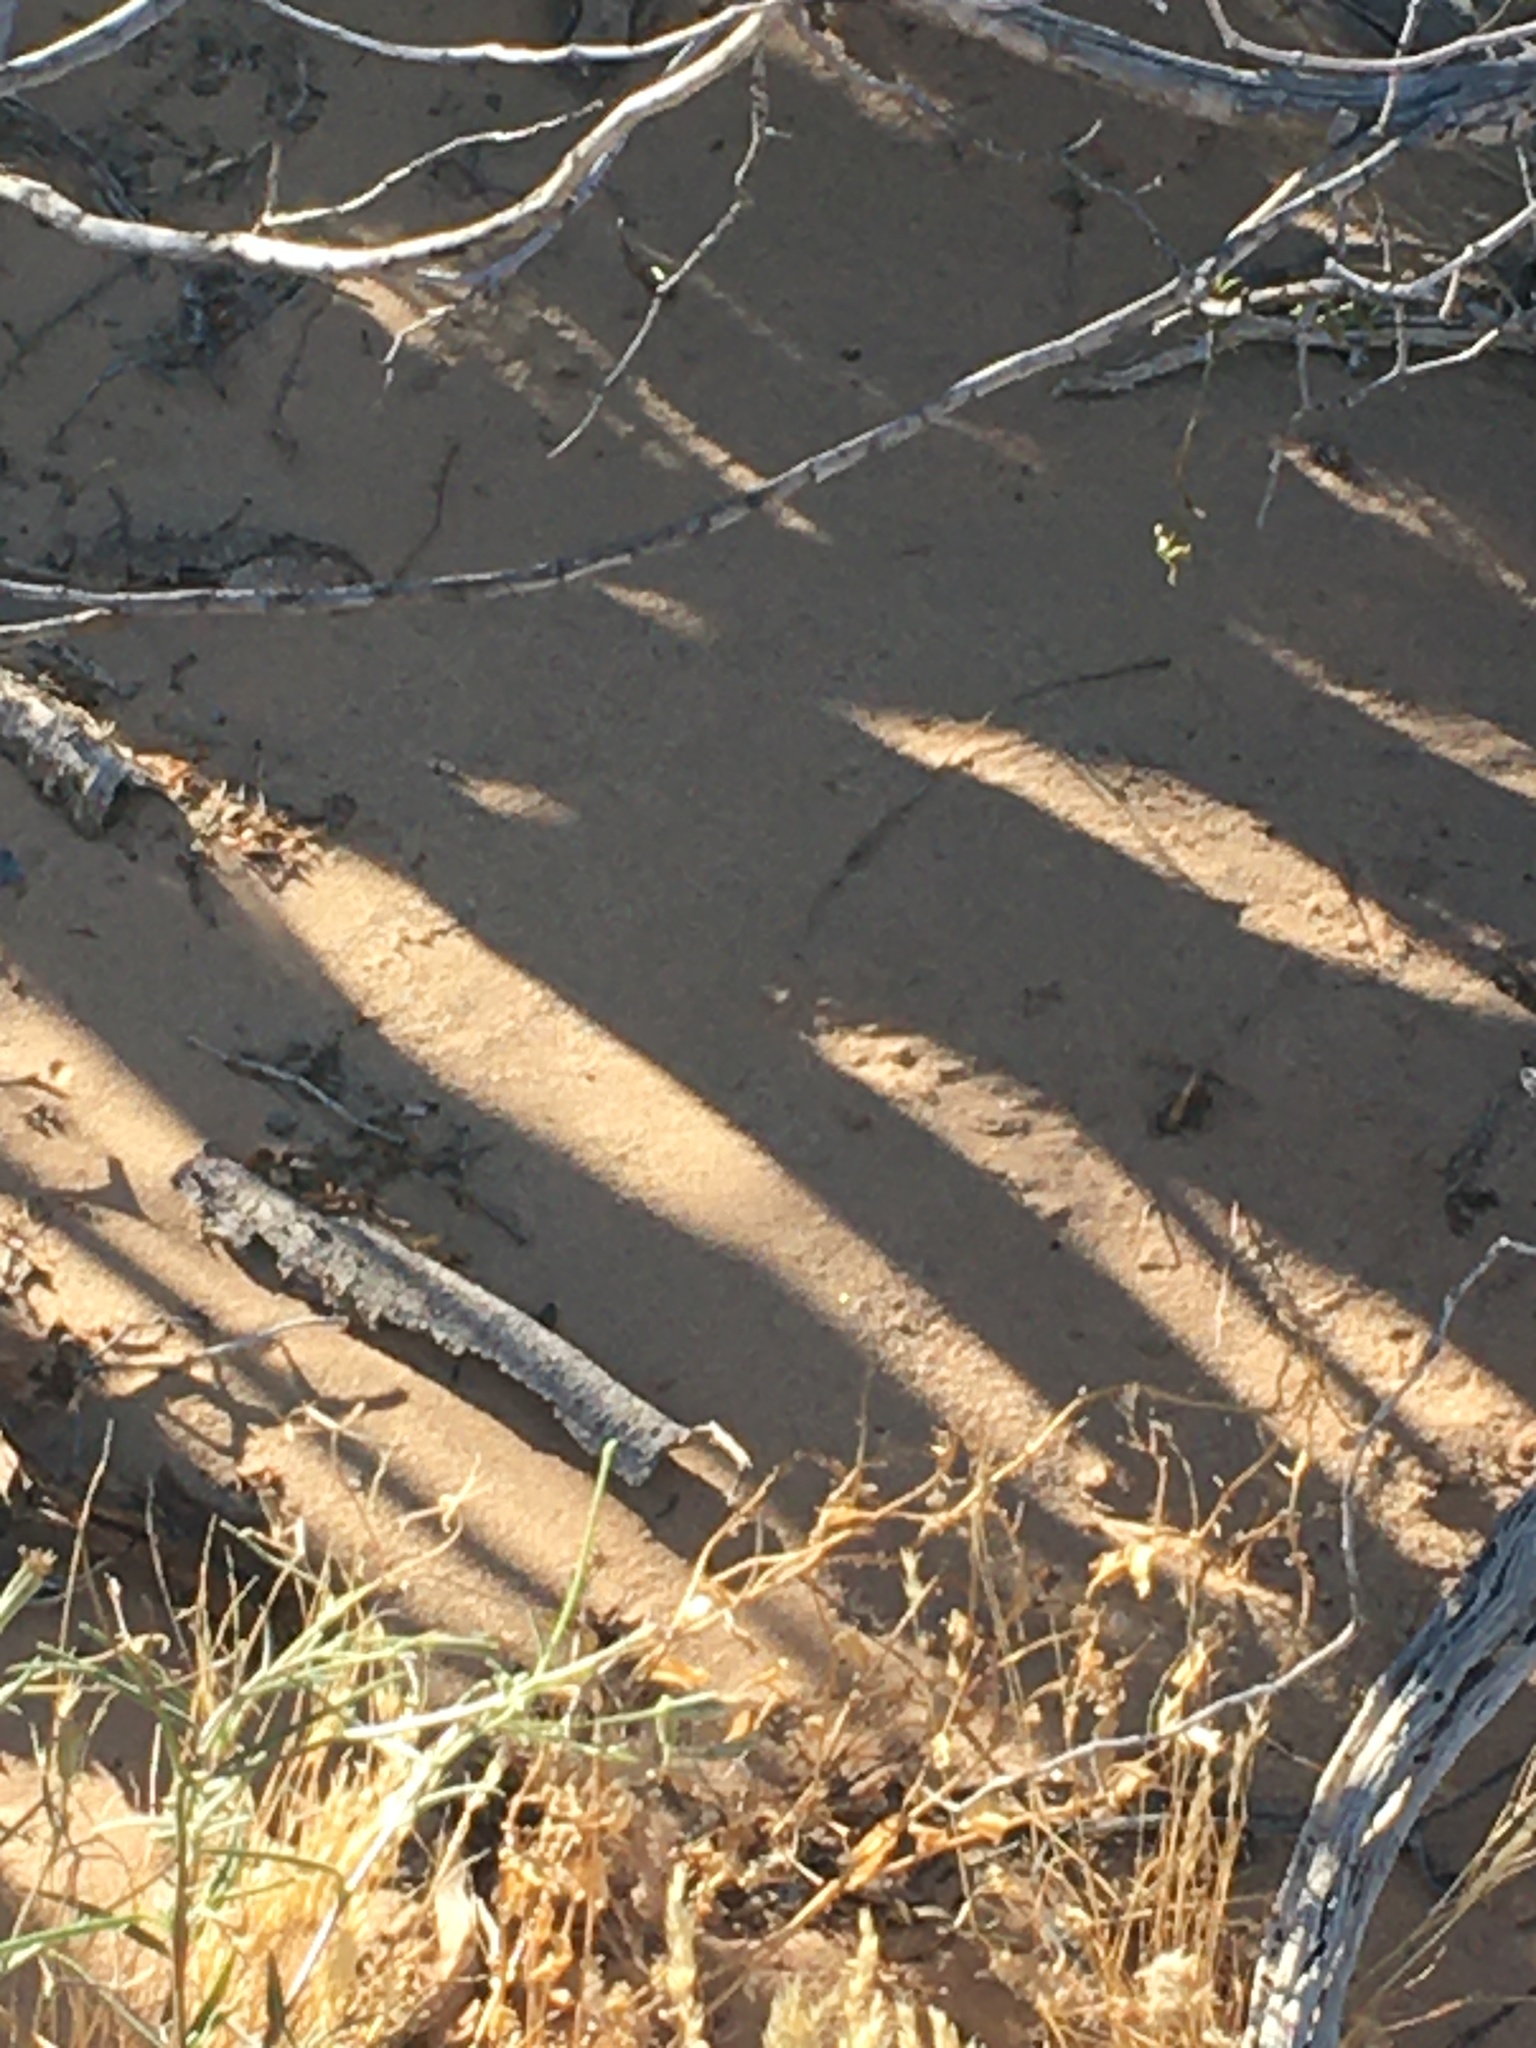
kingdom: Animalia
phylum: Chordata
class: Squamata
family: Phrynosomatidae
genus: Uma
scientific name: Uma notata
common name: Colorado desert fringe-toed lizard
